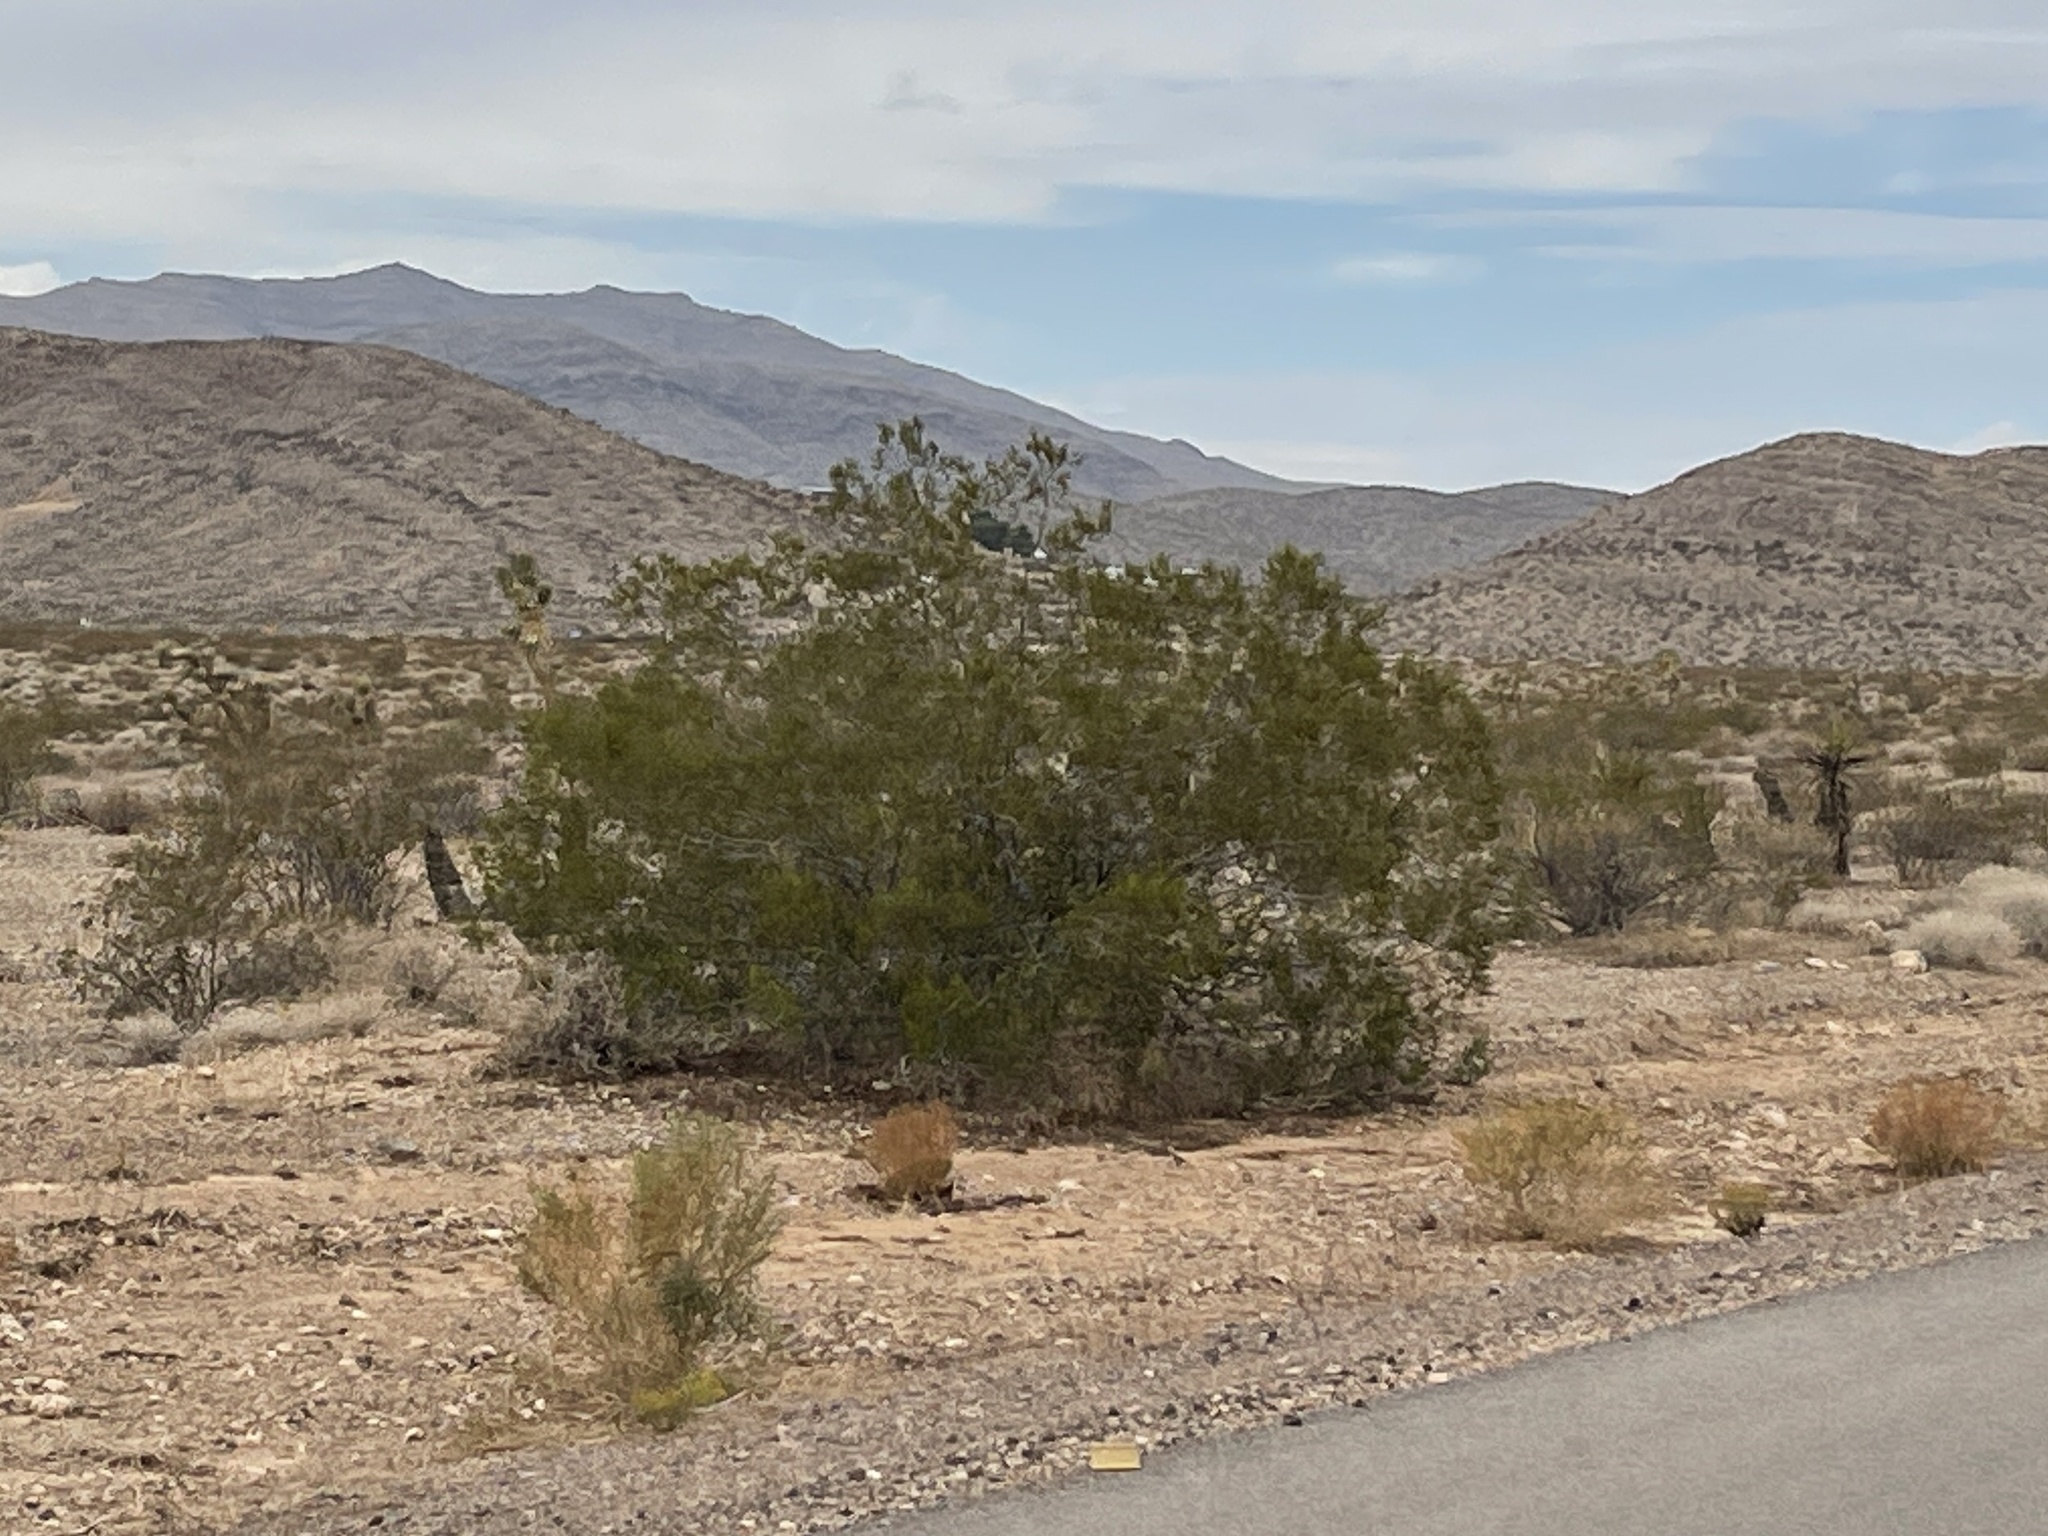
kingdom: Plantae
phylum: Tracheophyta
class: Magnoliopsida
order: Zygophyllales
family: Zygophyllaceae
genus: Larrea
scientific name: Larrea tridentata
